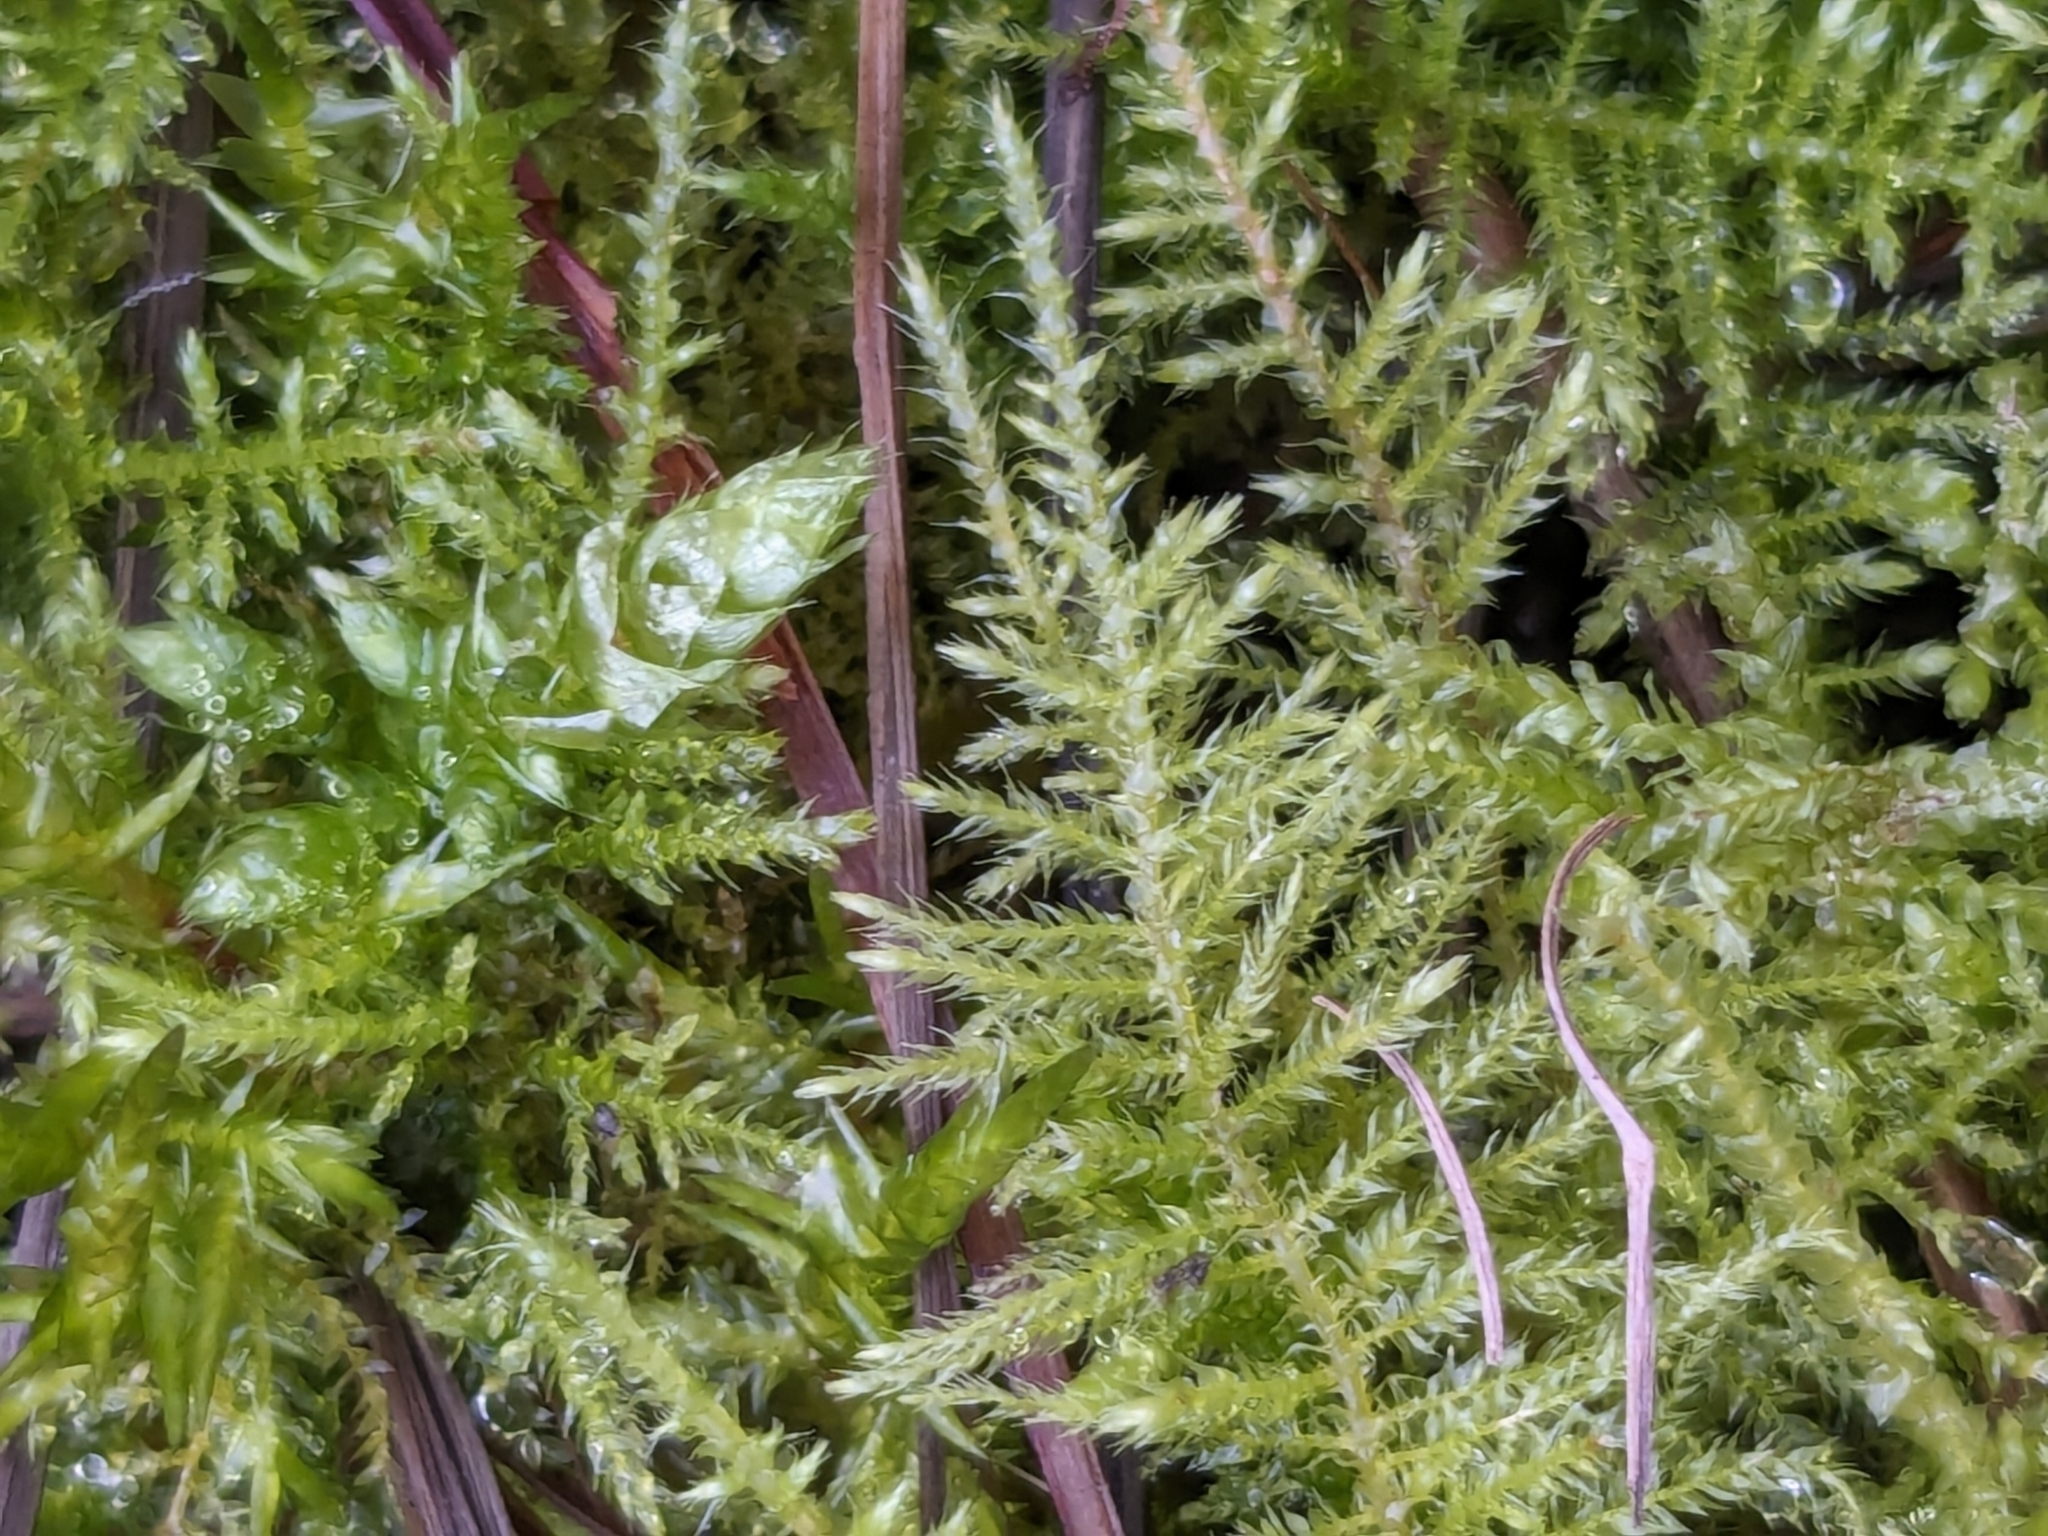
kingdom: Plantae
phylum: Bryophyta
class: Bryopsida
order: Hypnales
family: Brachytheciaceae
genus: Kindbergia
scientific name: Kindbergia praelonga
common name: Slender beaked moss
